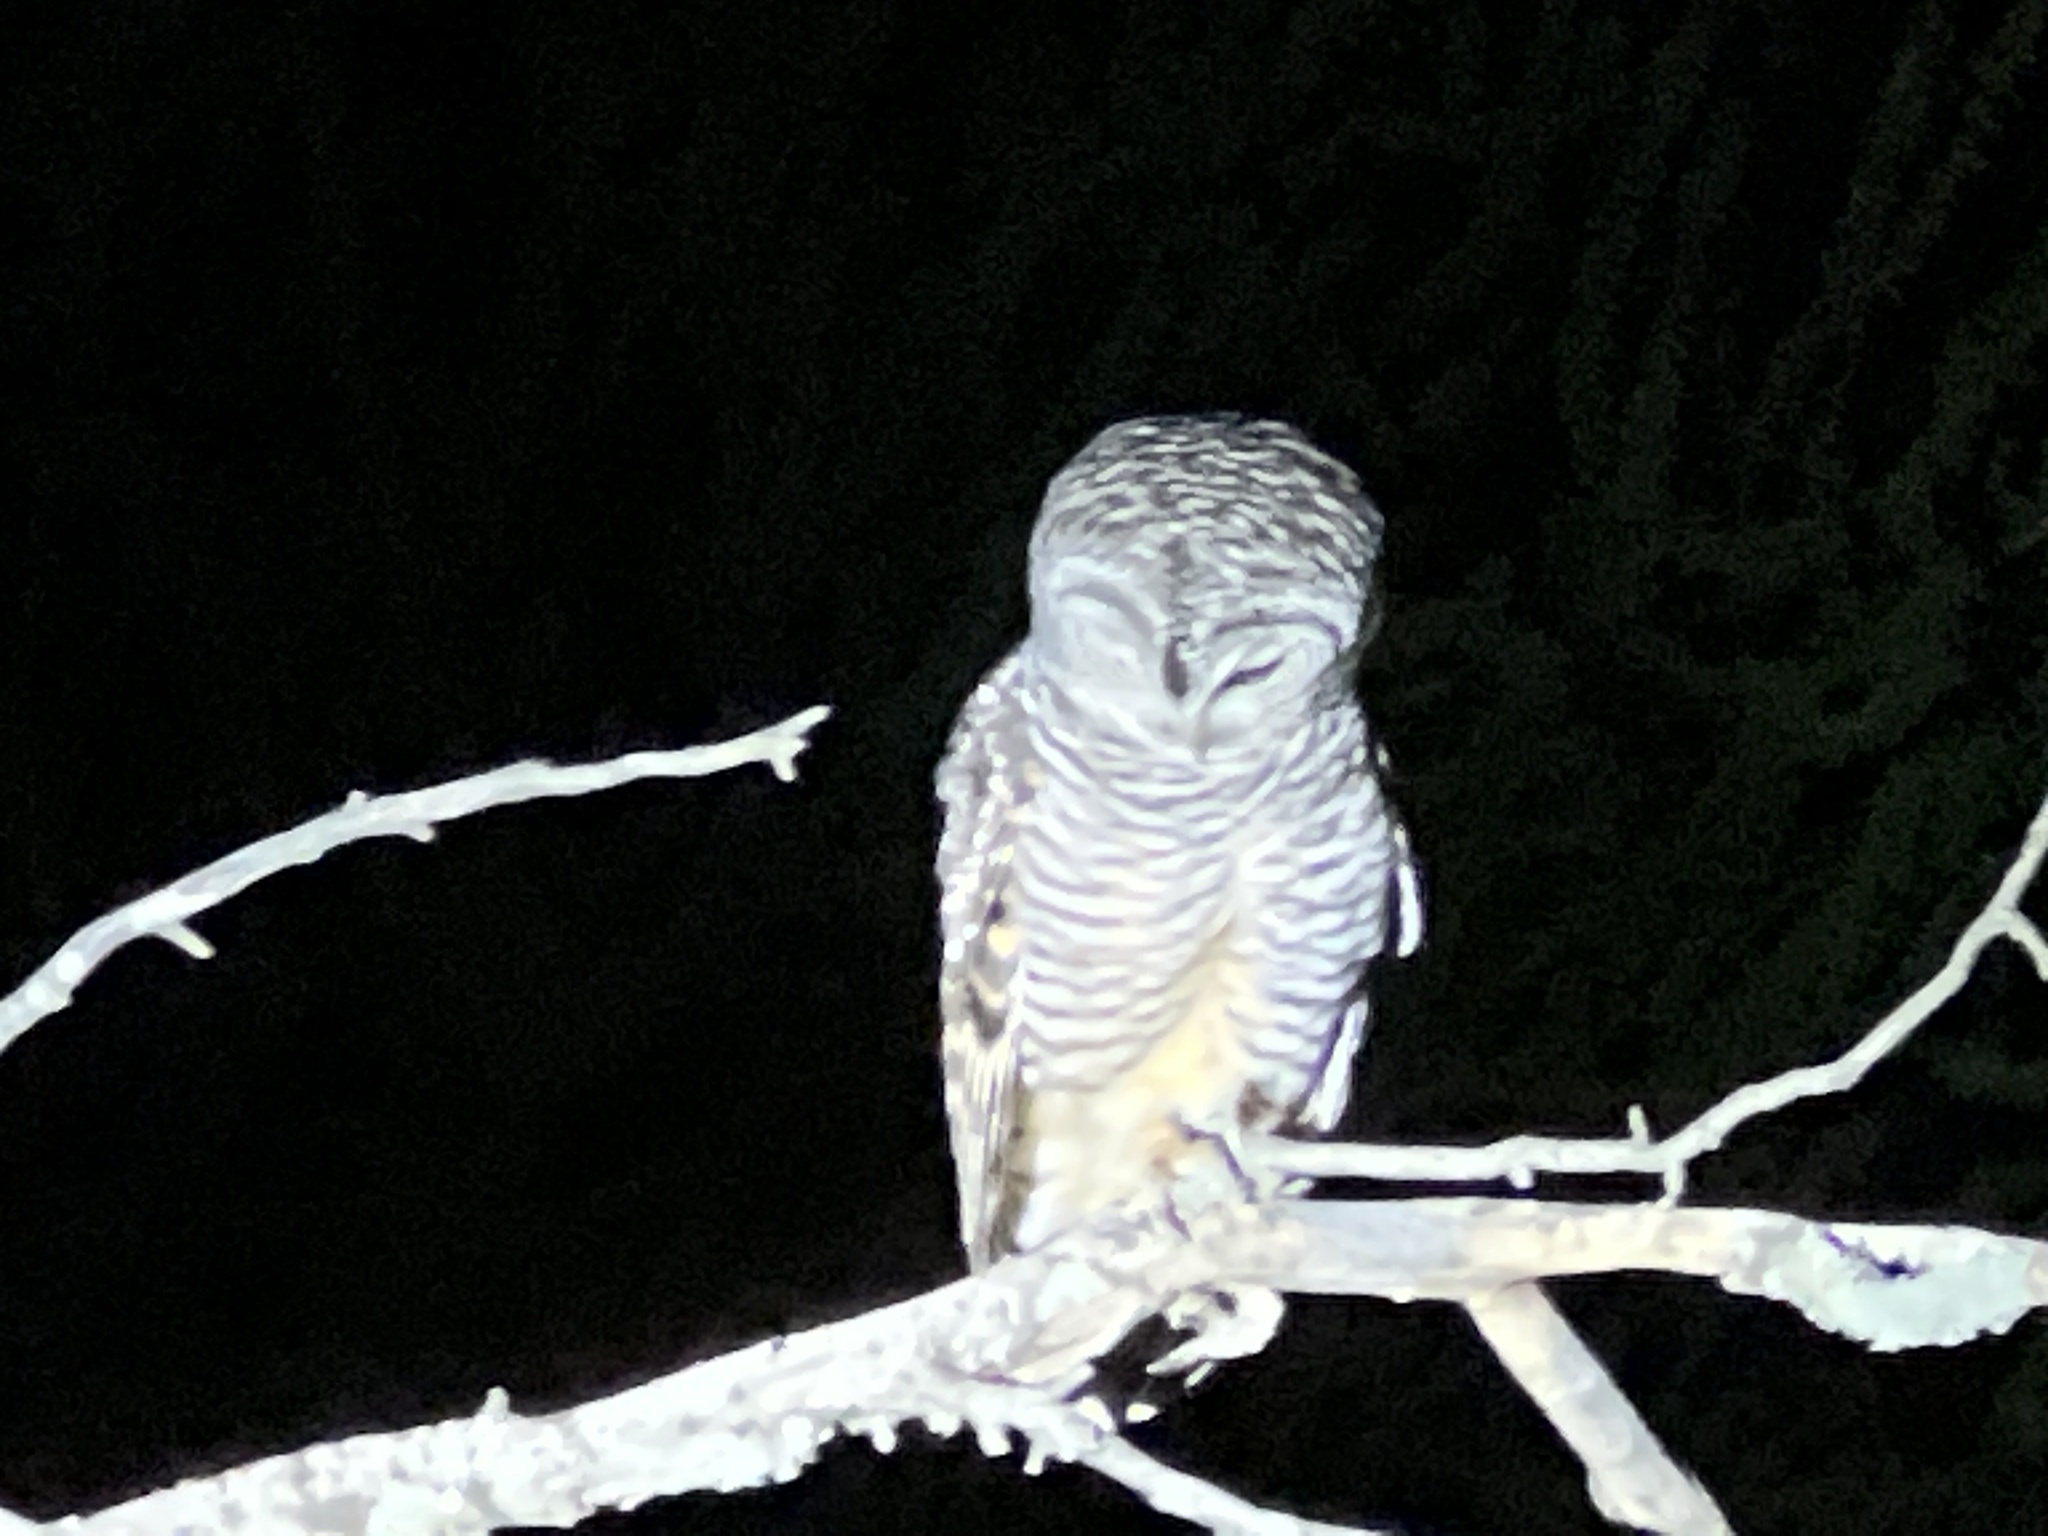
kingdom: Animalia
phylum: Chordata
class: Aves
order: Strigiformes
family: Strigidae
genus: Strix
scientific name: Strix chacoensis
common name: Chaco owl
